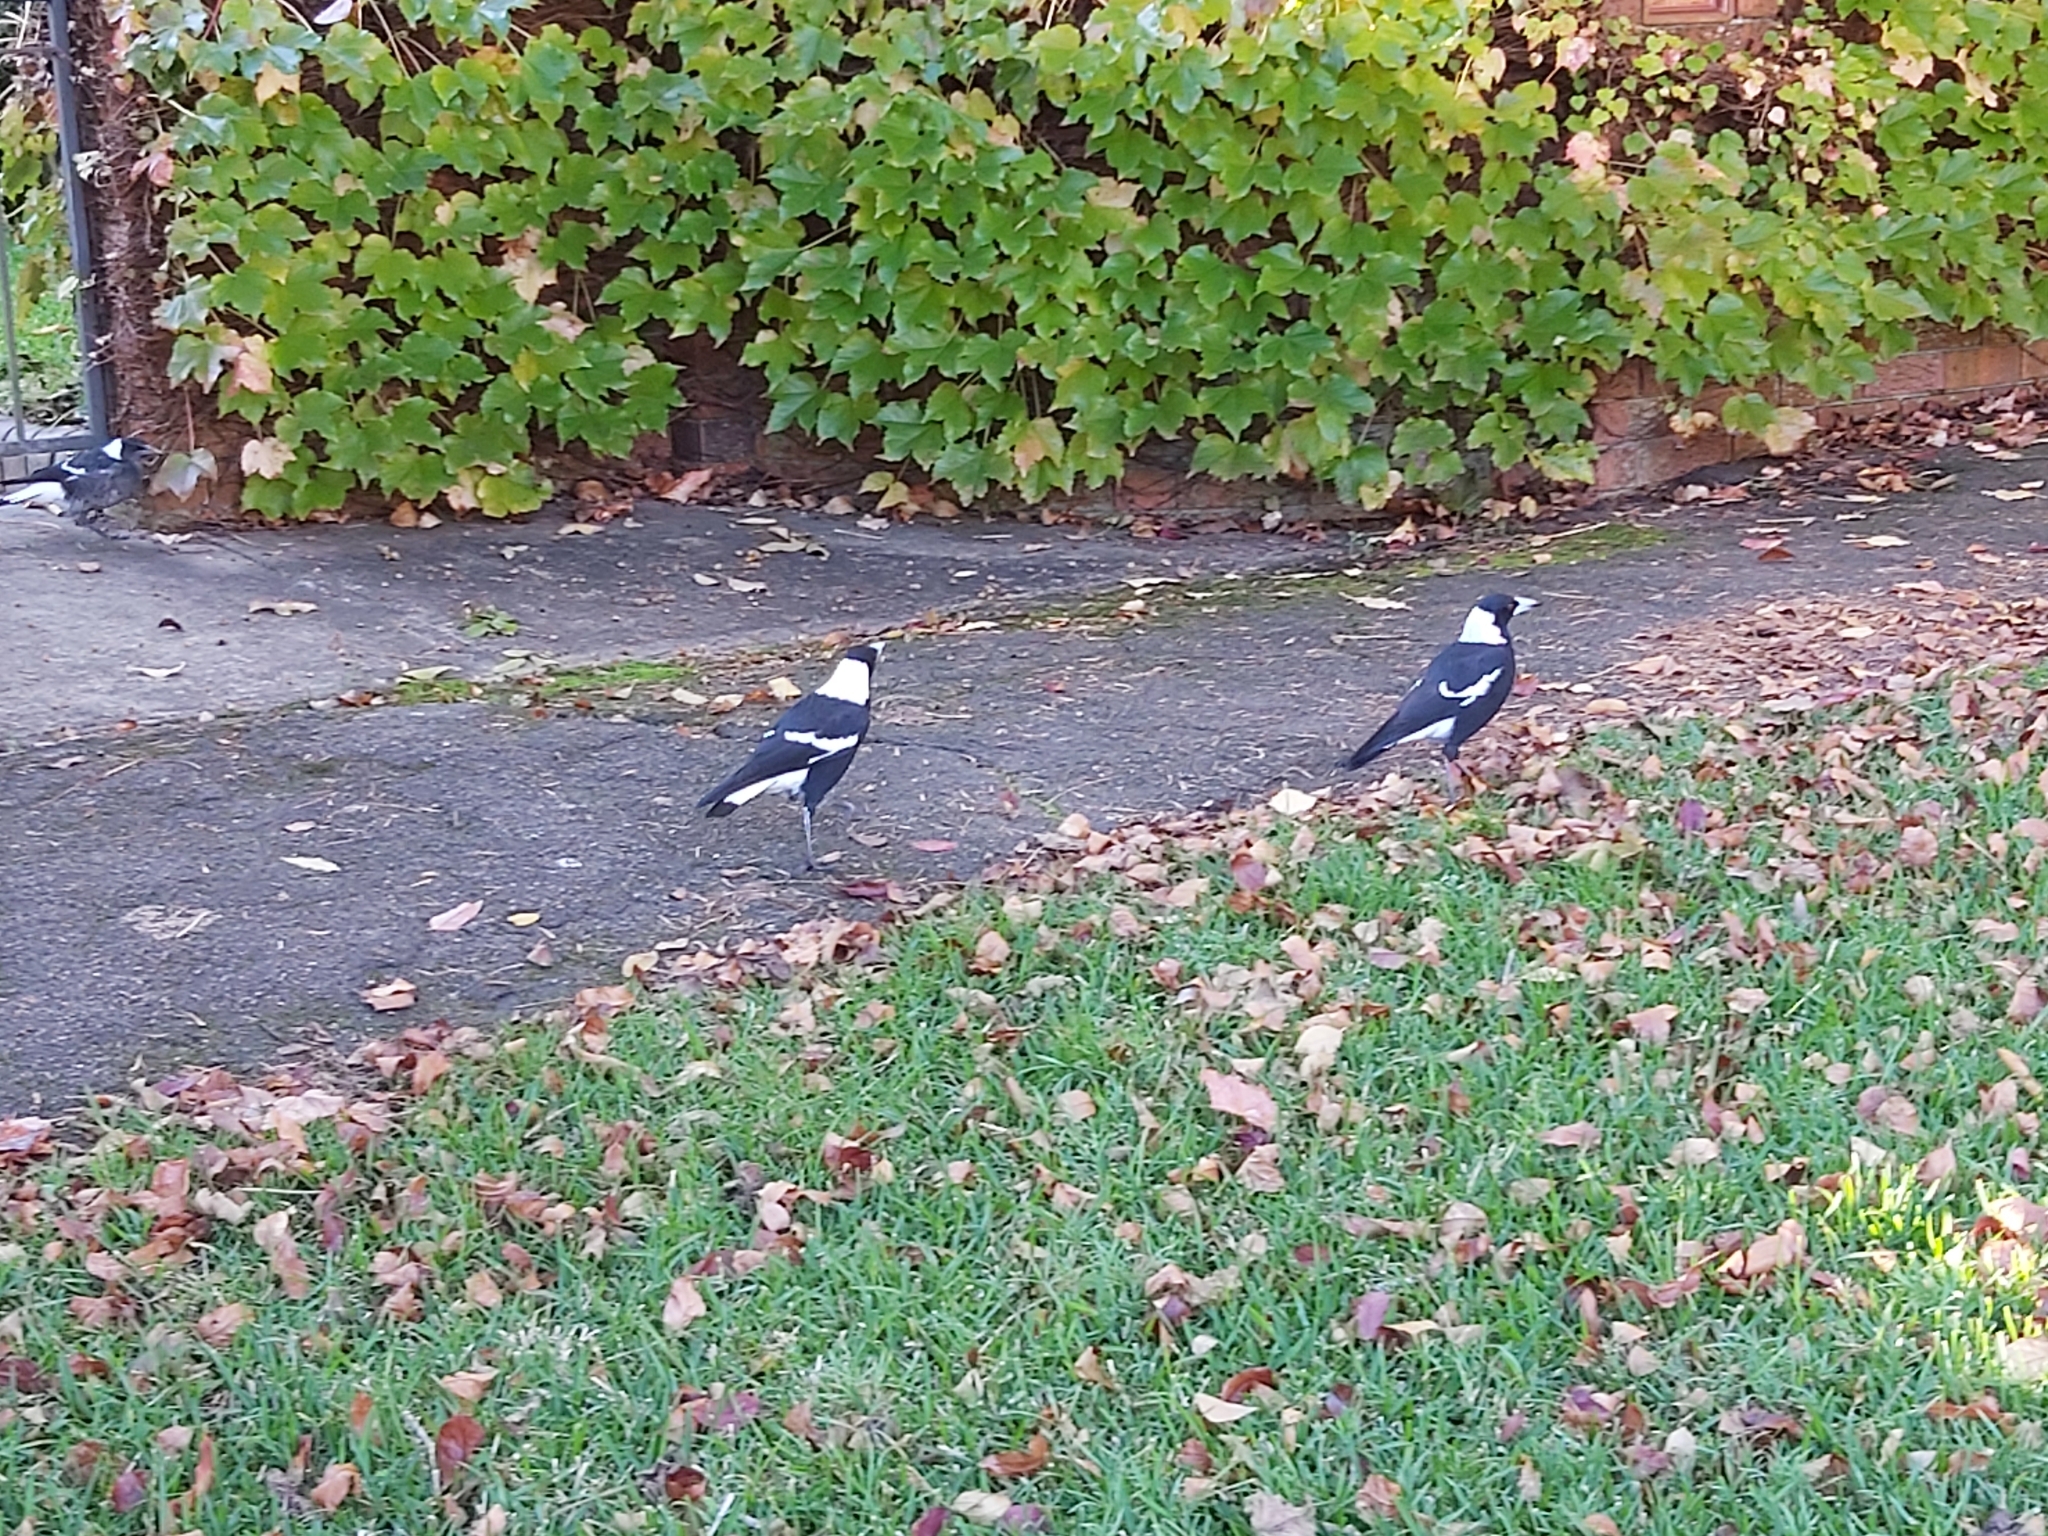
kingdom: Animalia
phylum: Chordata
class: Aves
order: Passeriformes
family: Cracticidae
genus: Gymnorhina
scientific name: Gymnorhina tibicen
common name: Australian magpie
